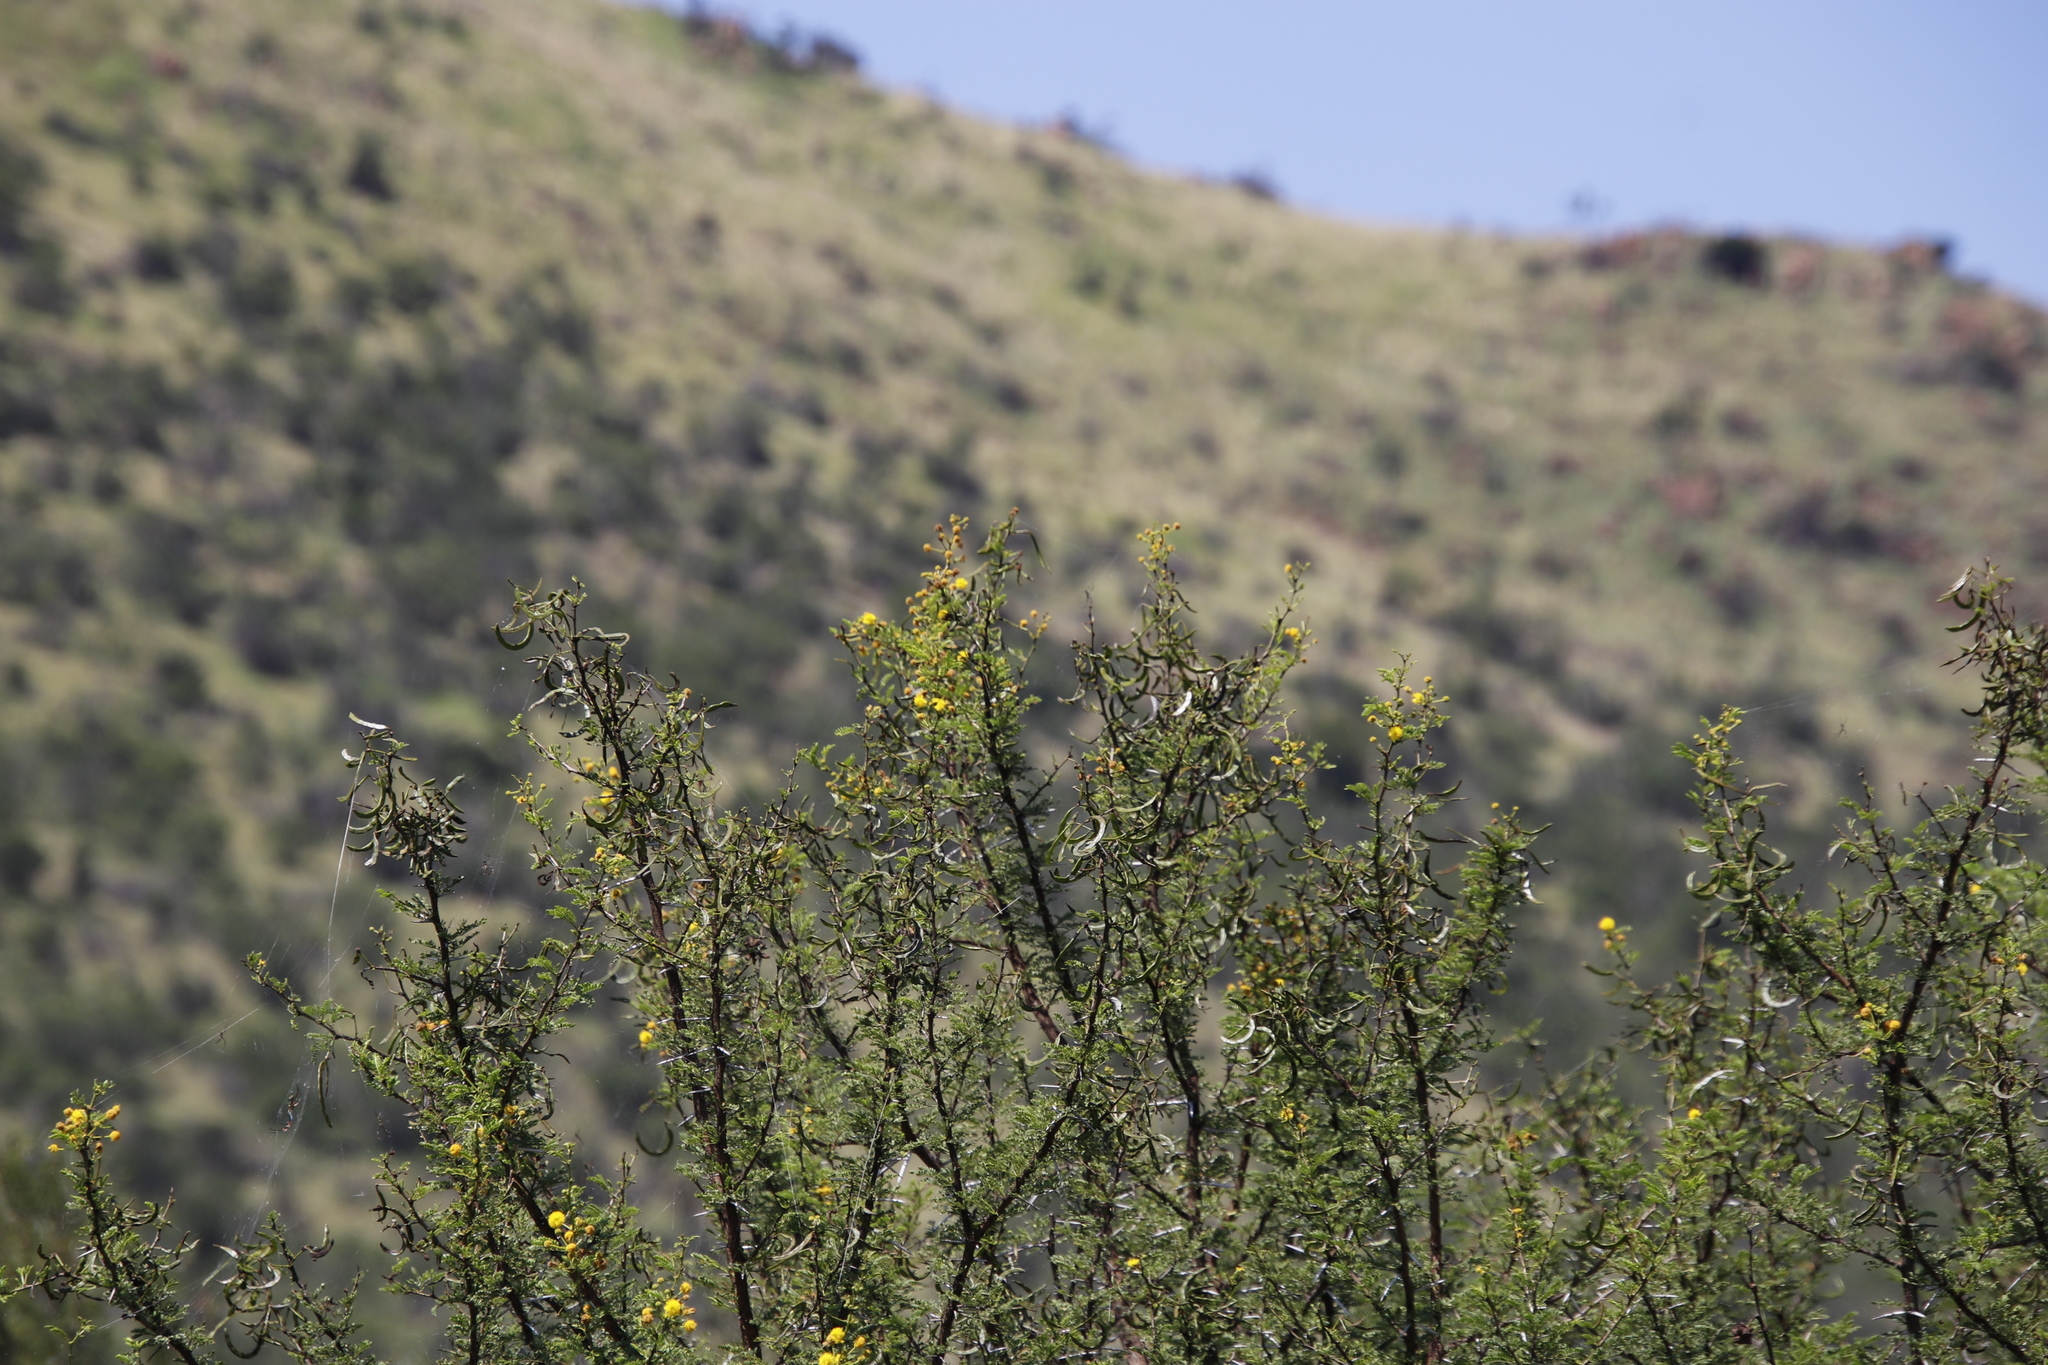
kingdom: Plantae
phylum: Tracheophyta
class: Magnoliopsida
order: Fabales
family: Fabaceae
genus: Vachellia
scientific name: Vachellia karroo
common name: Sweet thorn
